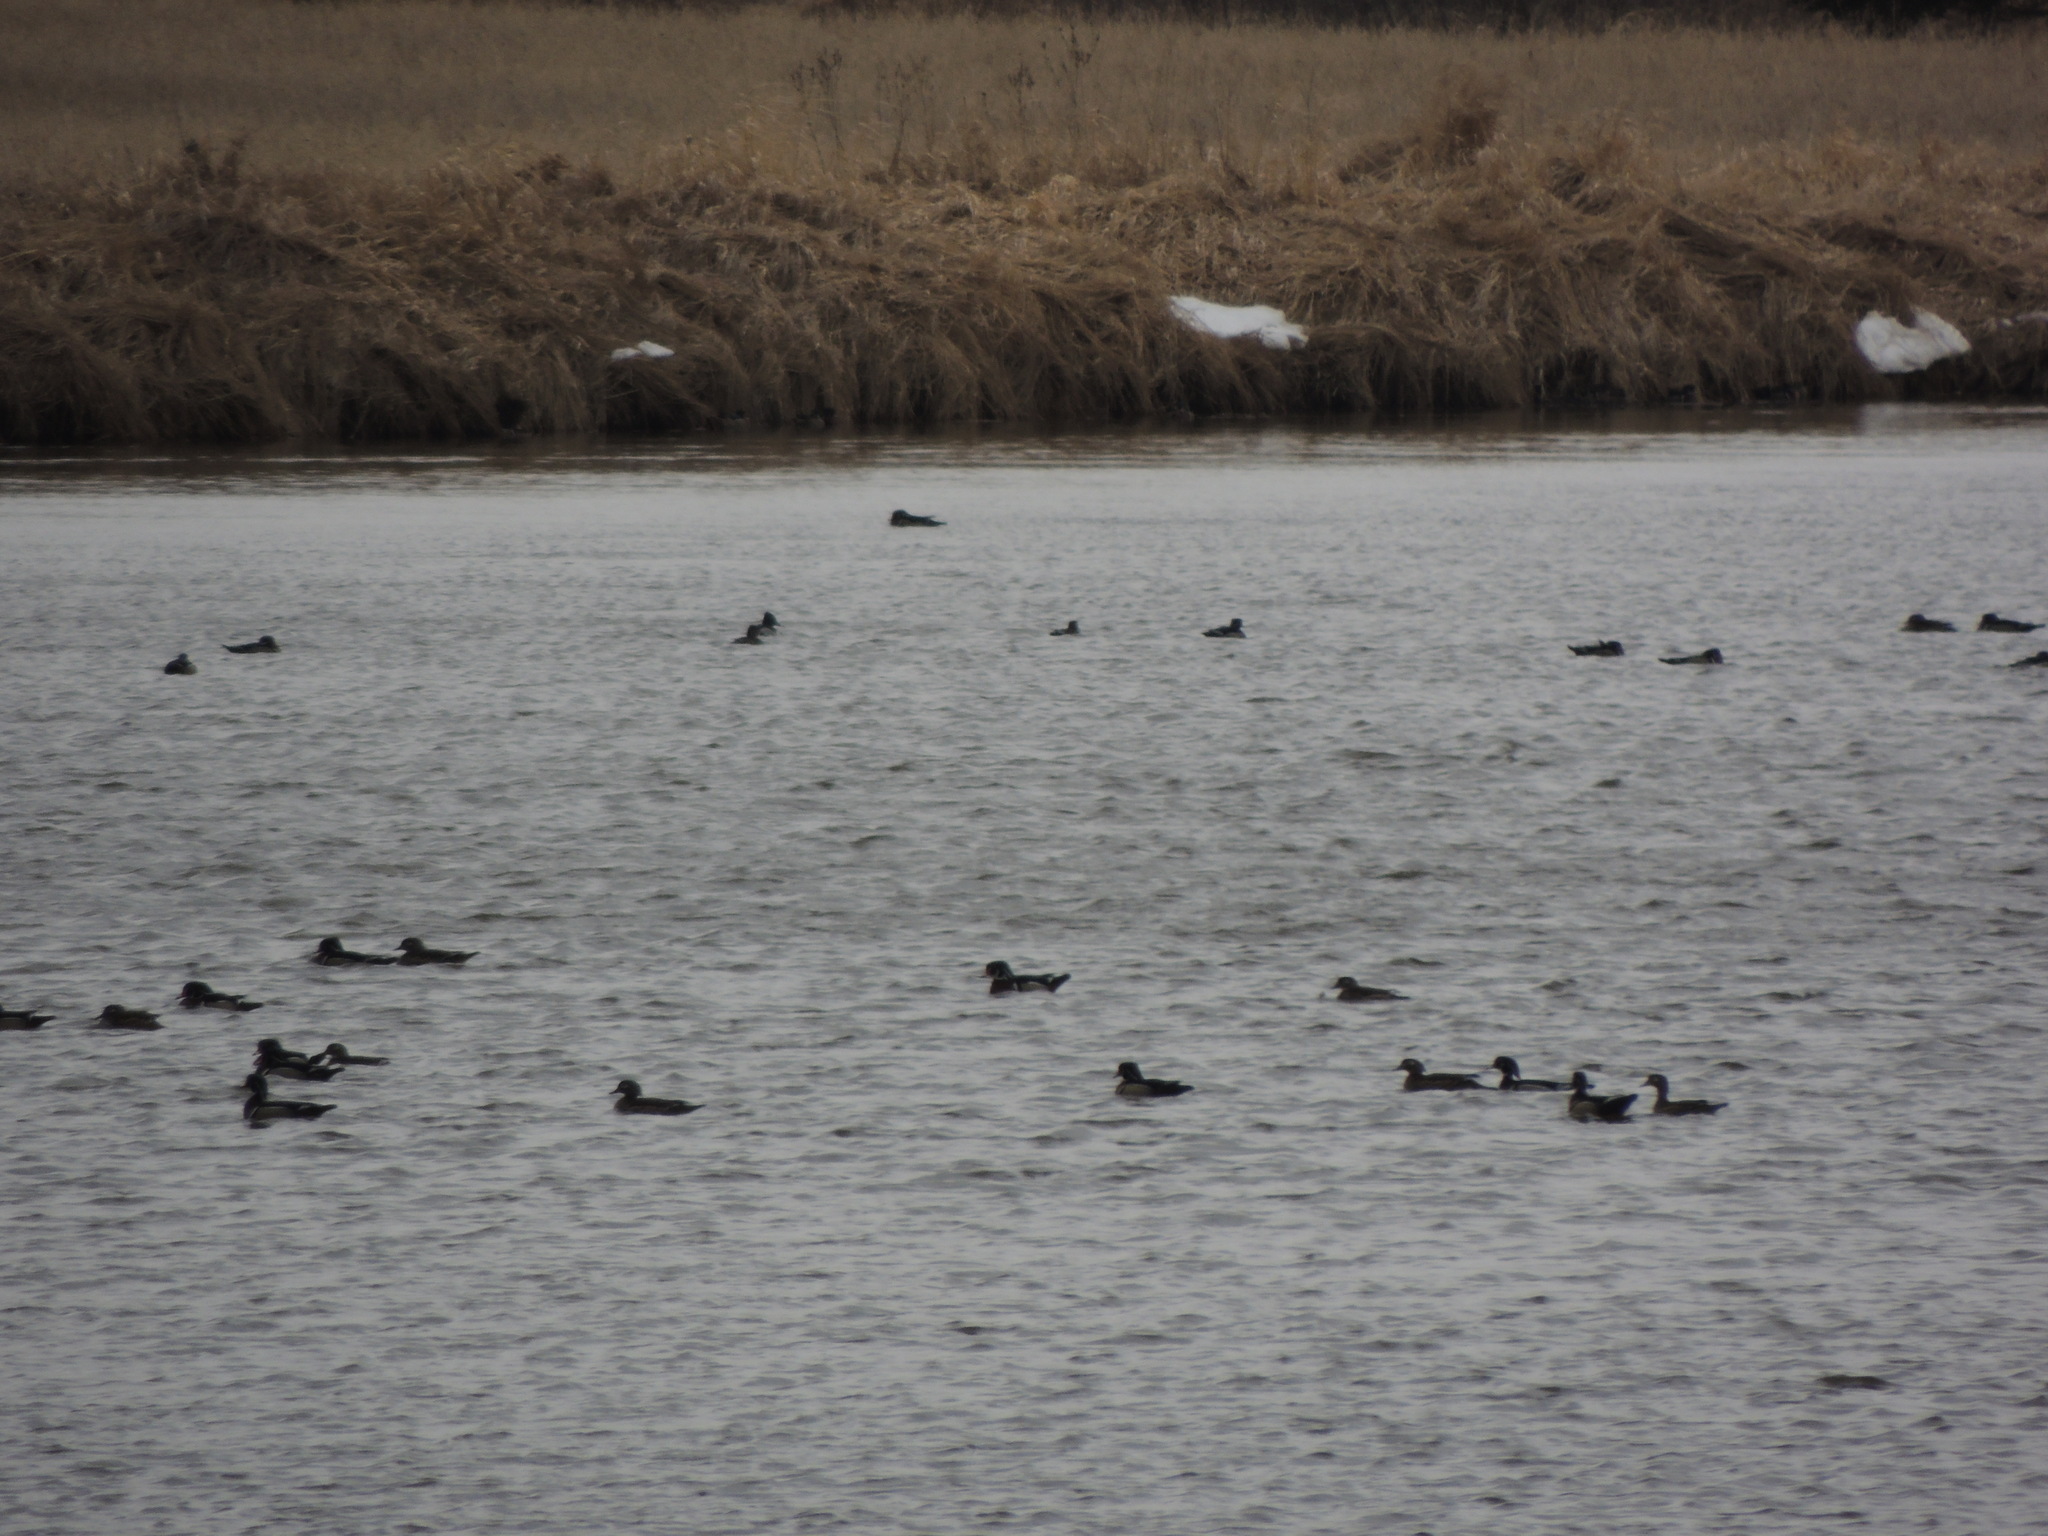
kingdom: Animalia
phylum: Chordata
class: Aves
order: Anseriformes
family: Anatidae
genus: Aix
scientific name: Aix sponsa
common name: Wood duck
